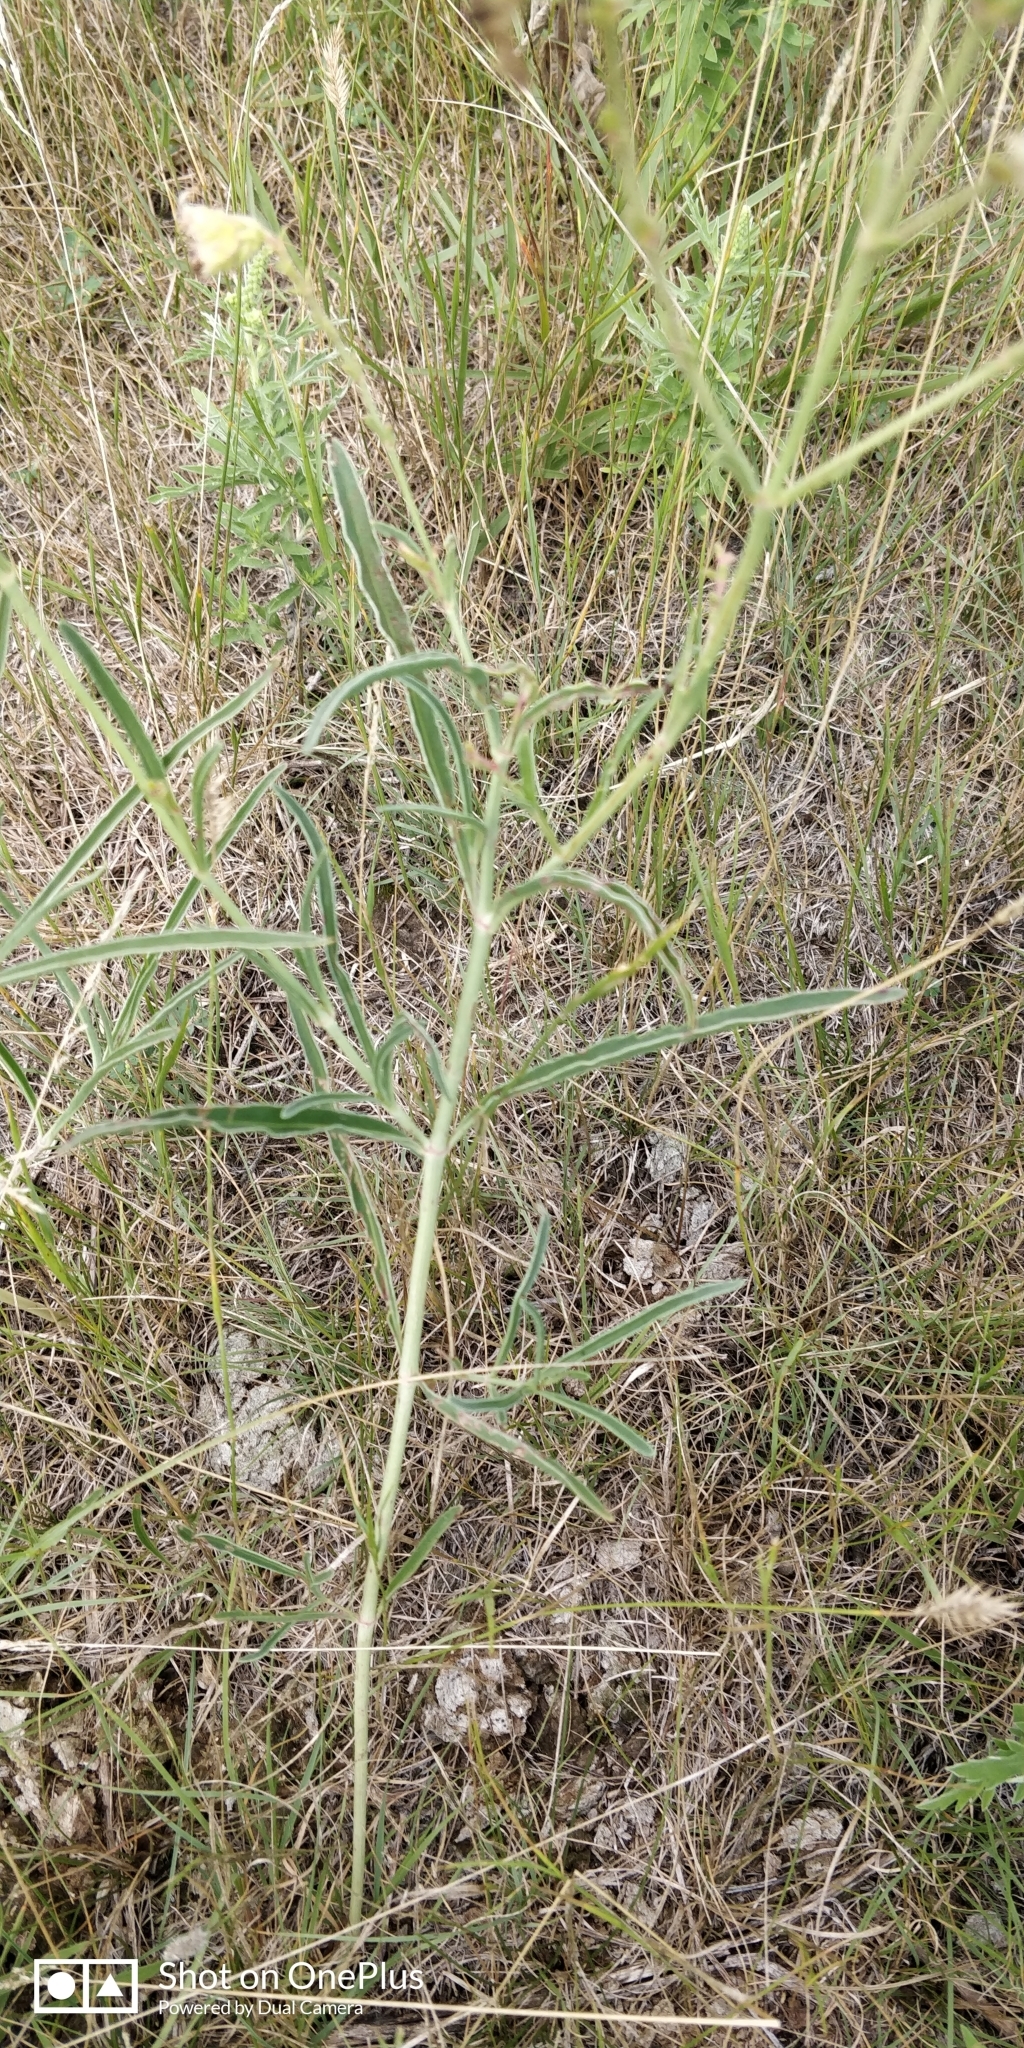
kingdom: Plantae
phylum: Tracheophyta
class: Magnoliopsida
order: Caryophyllales
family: Nyctaginaceae
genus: Mirabilis
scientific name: Mirabilis linearis
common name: Linear-leaved four-o'clock
